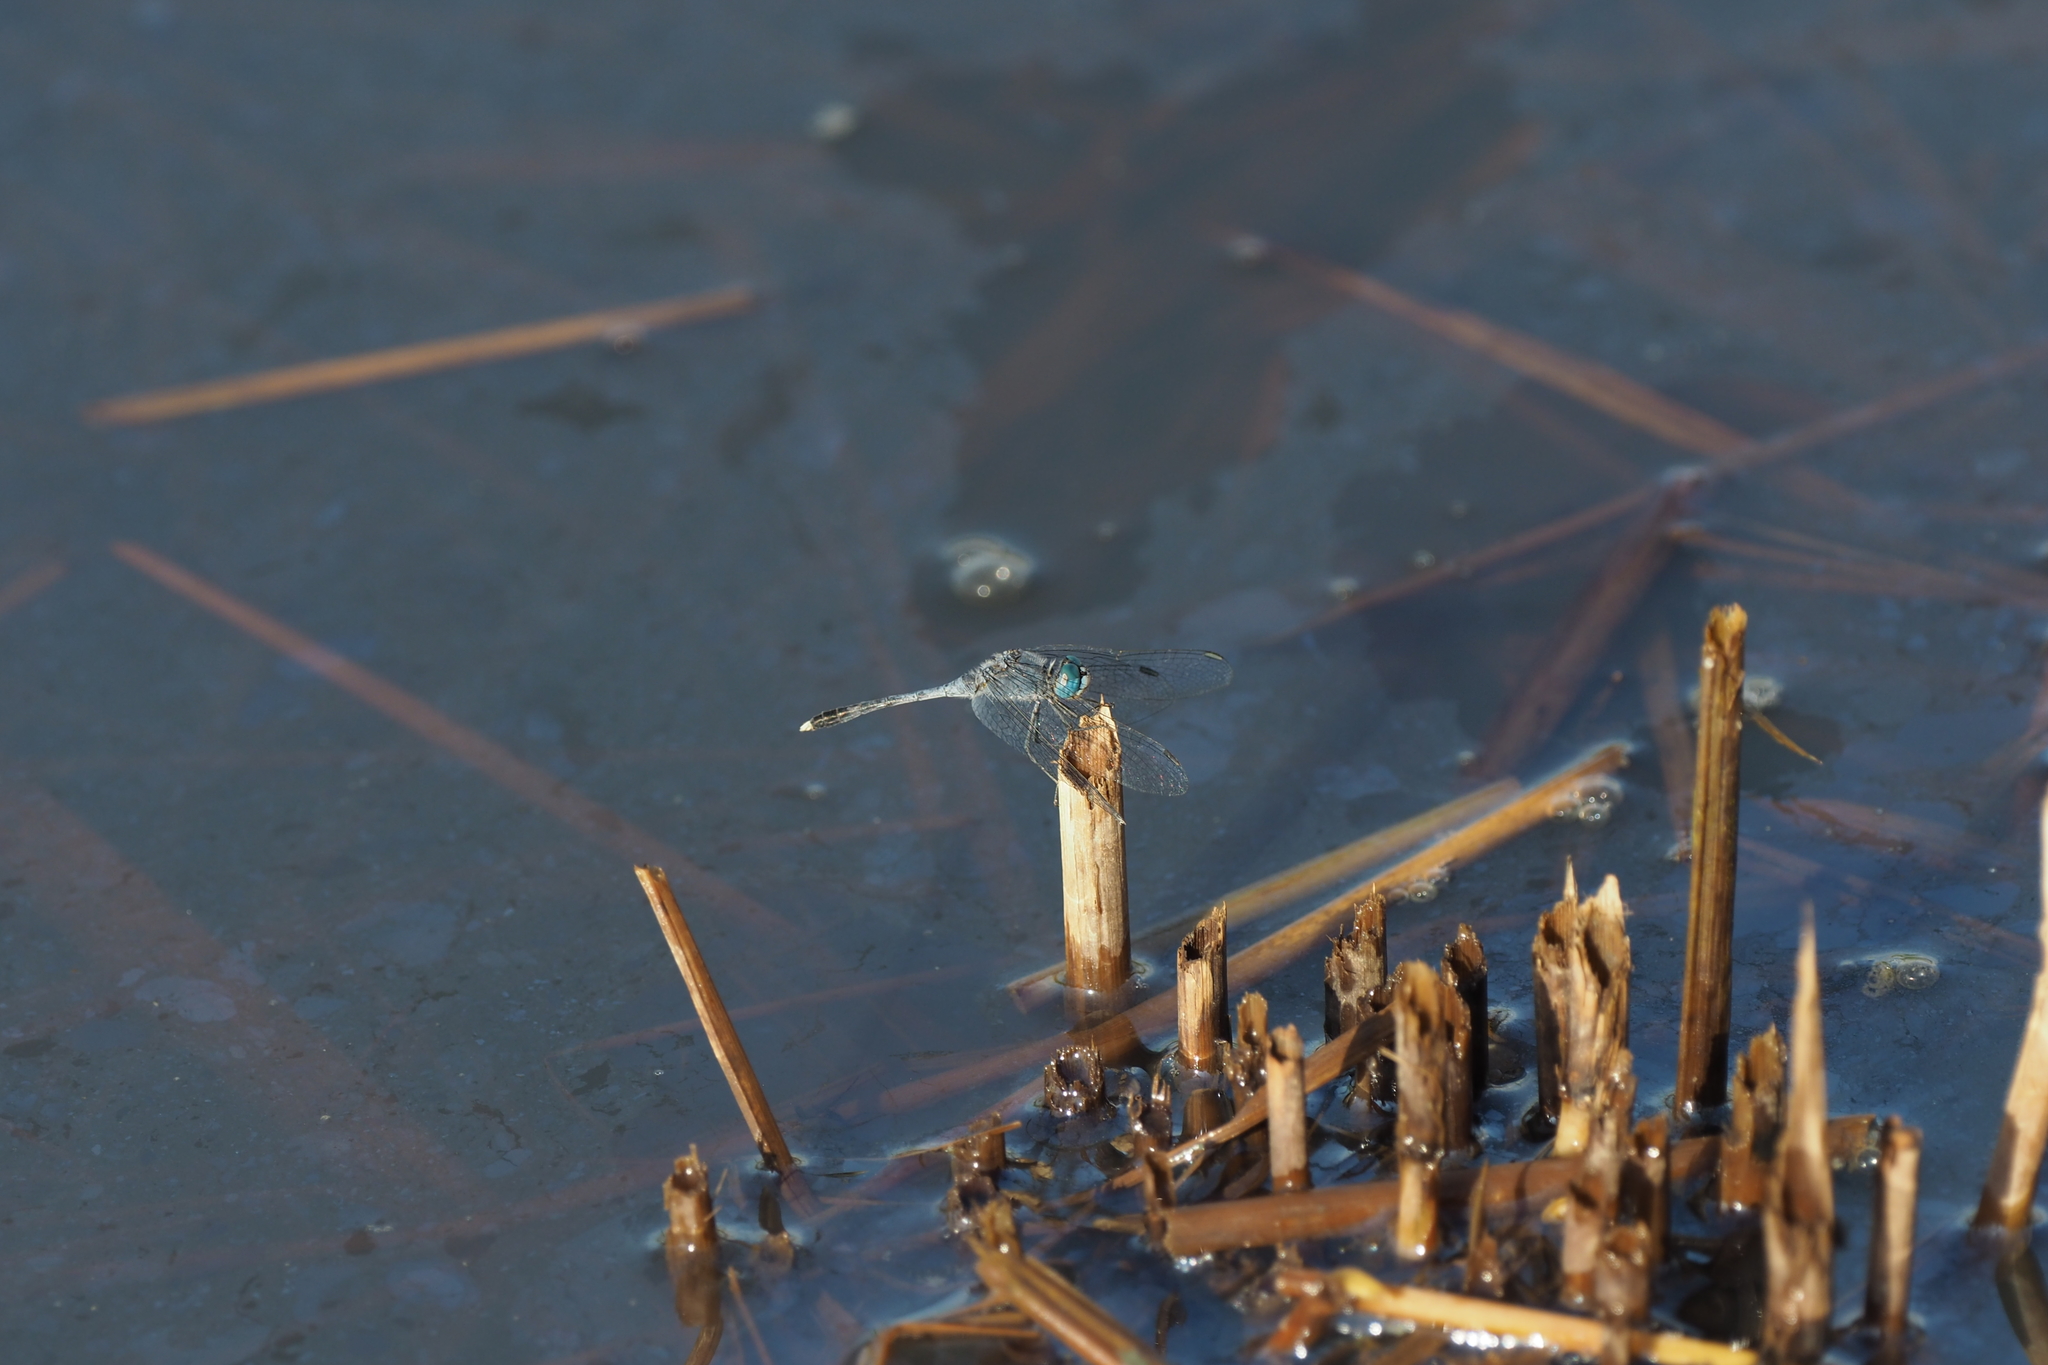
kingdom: Animalia
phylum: Arthropoda
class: Insecta
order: Odonata
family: Libellulidae
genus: Diplacodes
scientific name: Diplacodes trivialis
